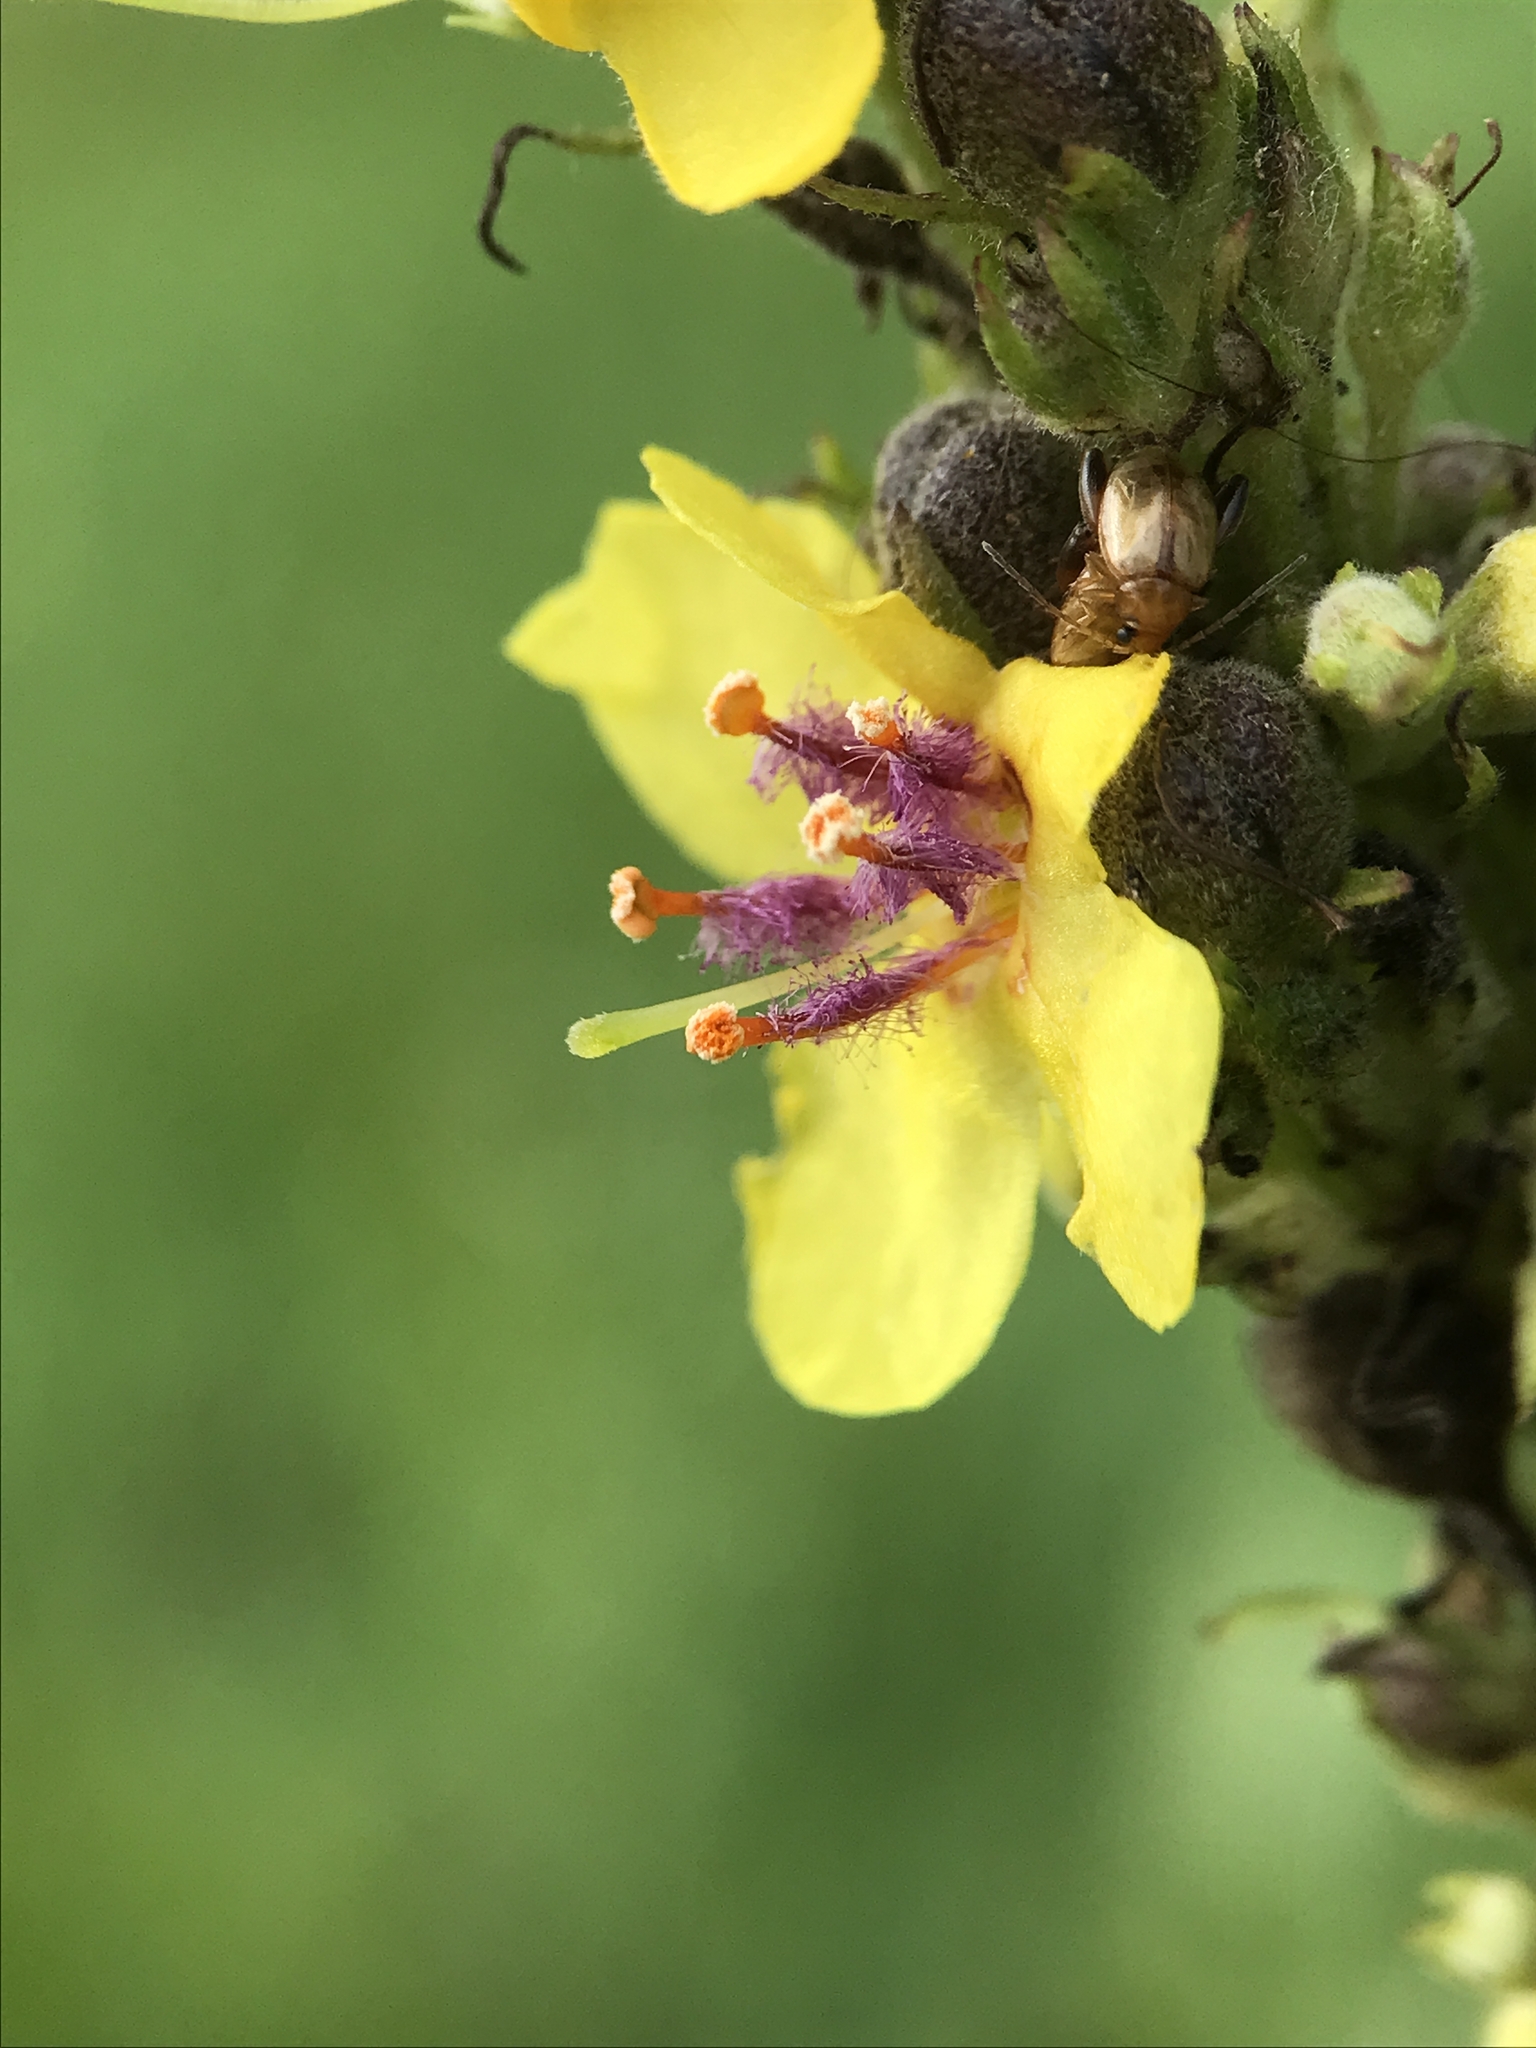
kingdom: Plantae
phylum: Tracheophyta
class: Magnoliopsida
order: Lamiales
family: Scrophulariaceae
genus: Verbascum
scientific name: Verbascum nigrum
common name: Dark mullein
